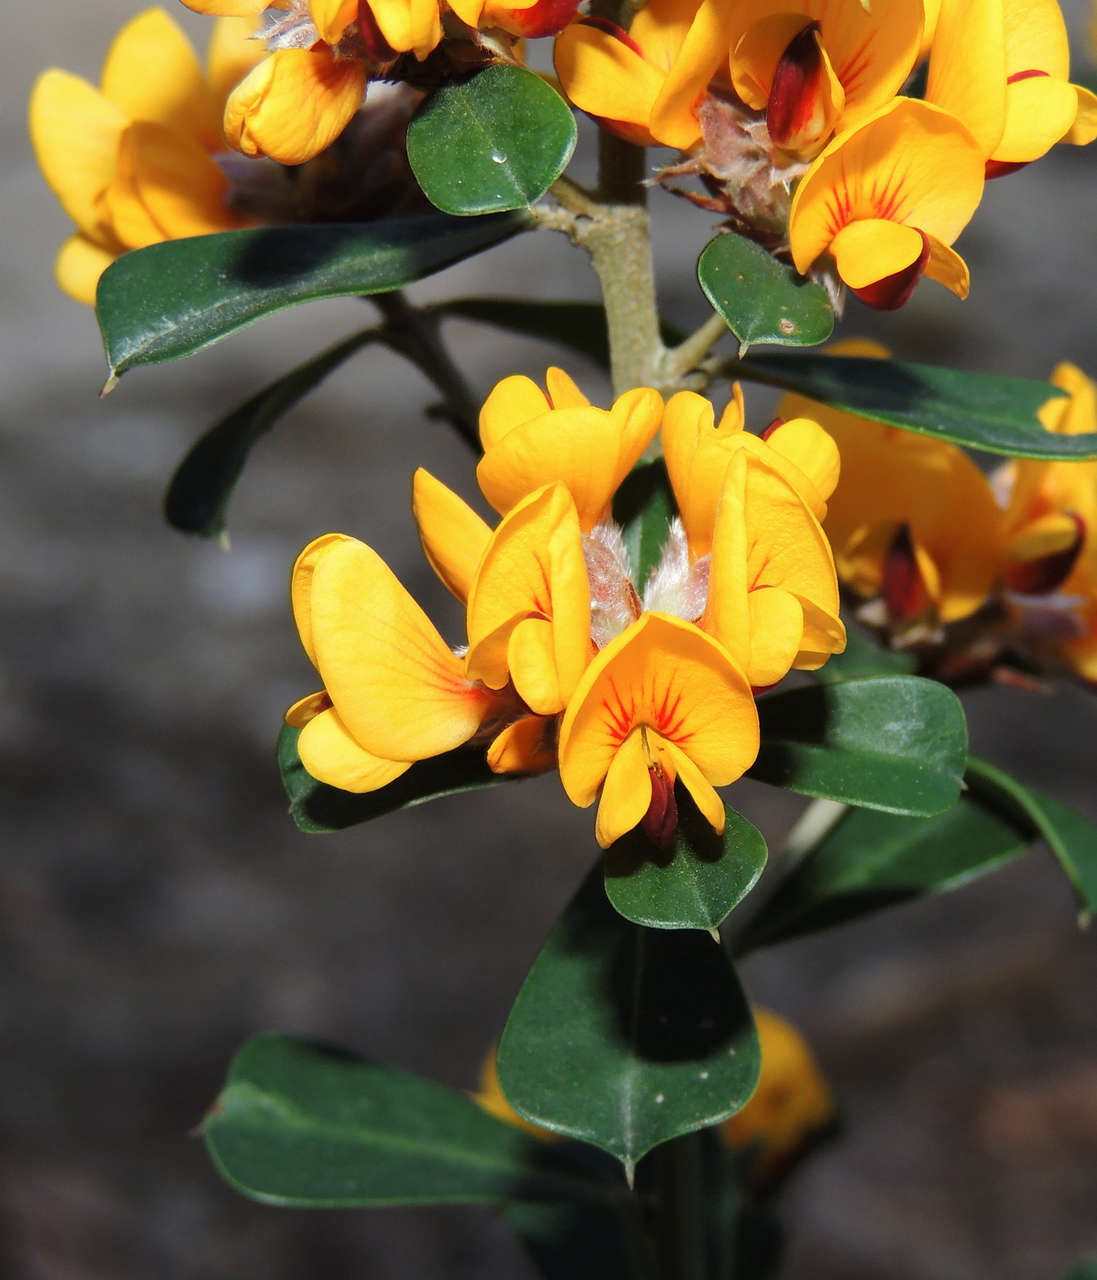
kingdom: Plantae
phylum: Tracheophyta
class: Magnoliopsida
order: Fabales
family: Fabaceae
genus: Pultenaea
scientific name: Pultenaea daphnoides
